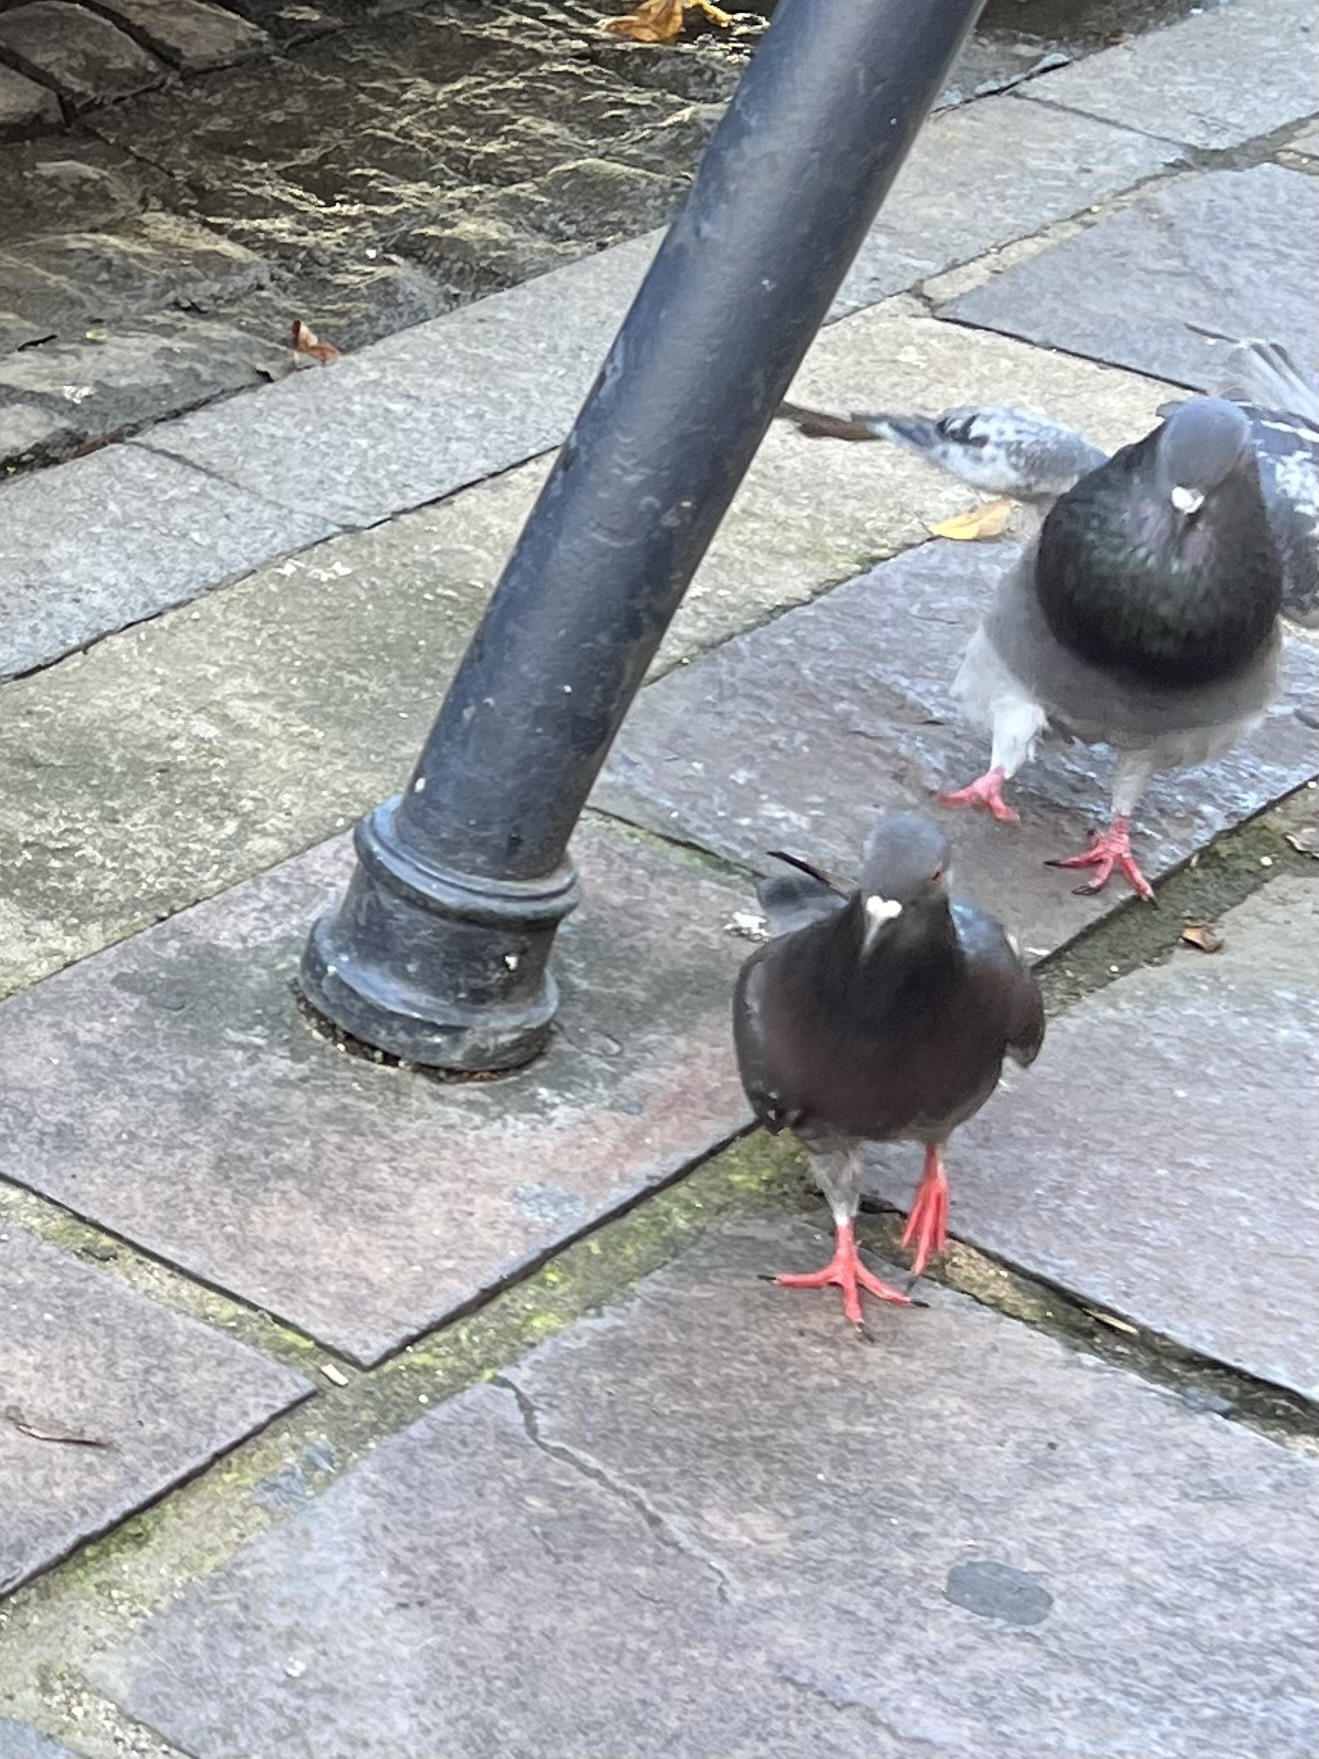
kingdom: Animalia
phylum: Chordata
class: Aves
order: Columbiformes
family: Columbidae
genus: Columba
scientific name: Columba livia
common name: Rock pigeon
